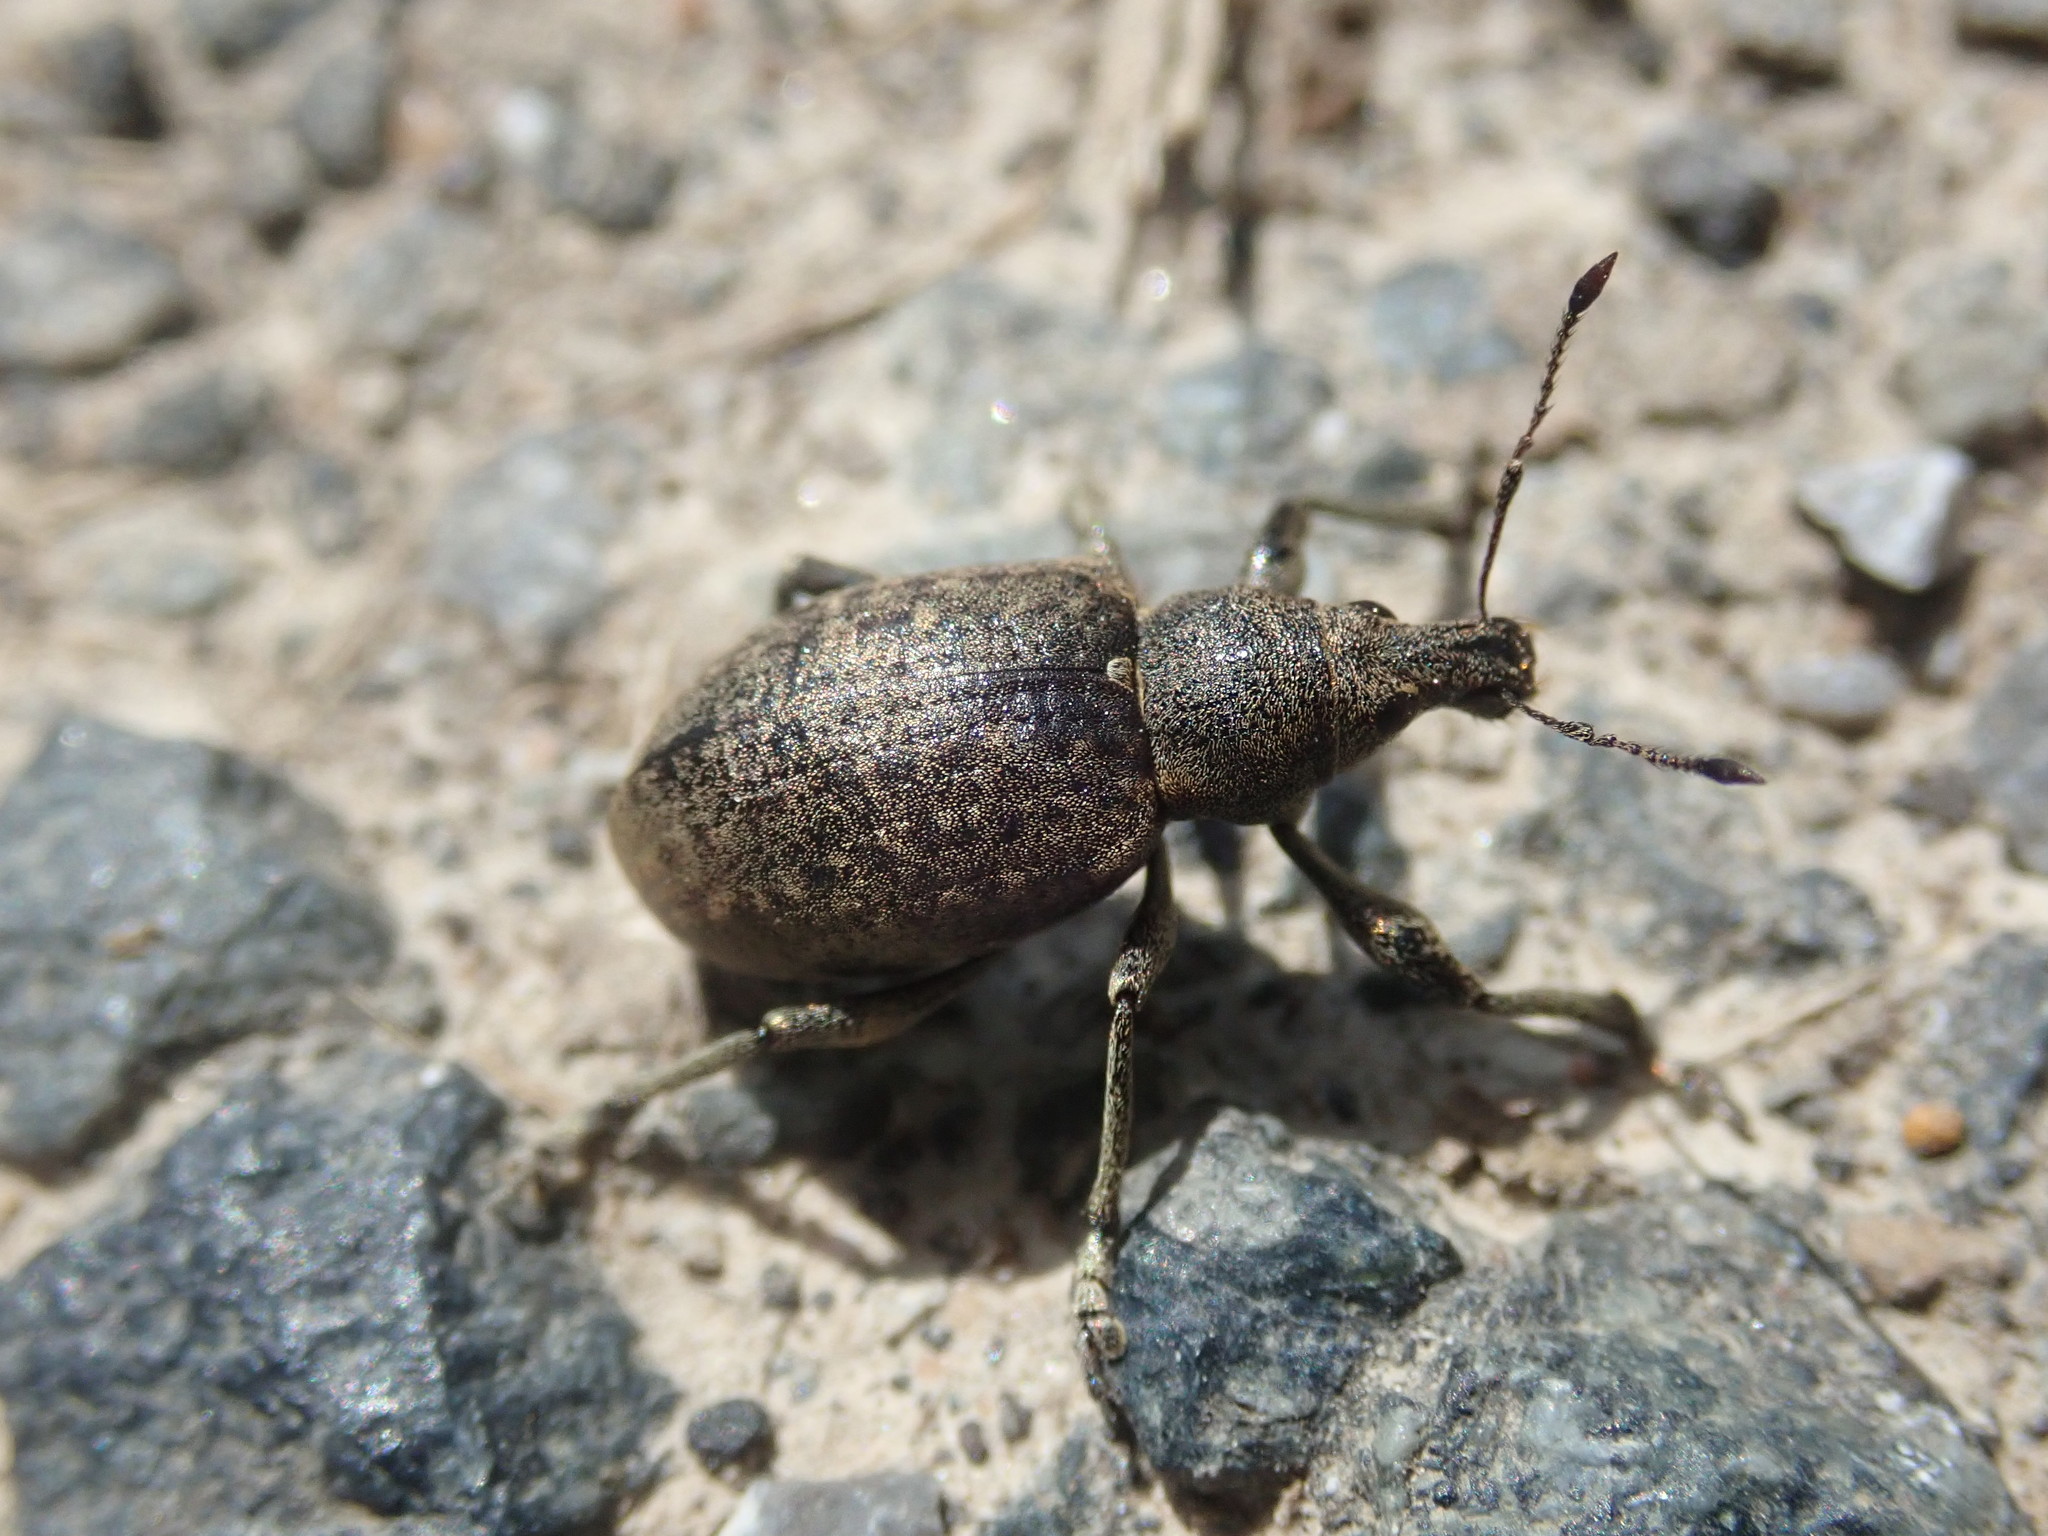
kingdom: Animalia
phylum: Arthropoda
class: Insecta
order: Coleoptera
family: Curculionidae
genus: Liophloeus
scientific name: Liophloeus tessulatus
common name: Weevil
